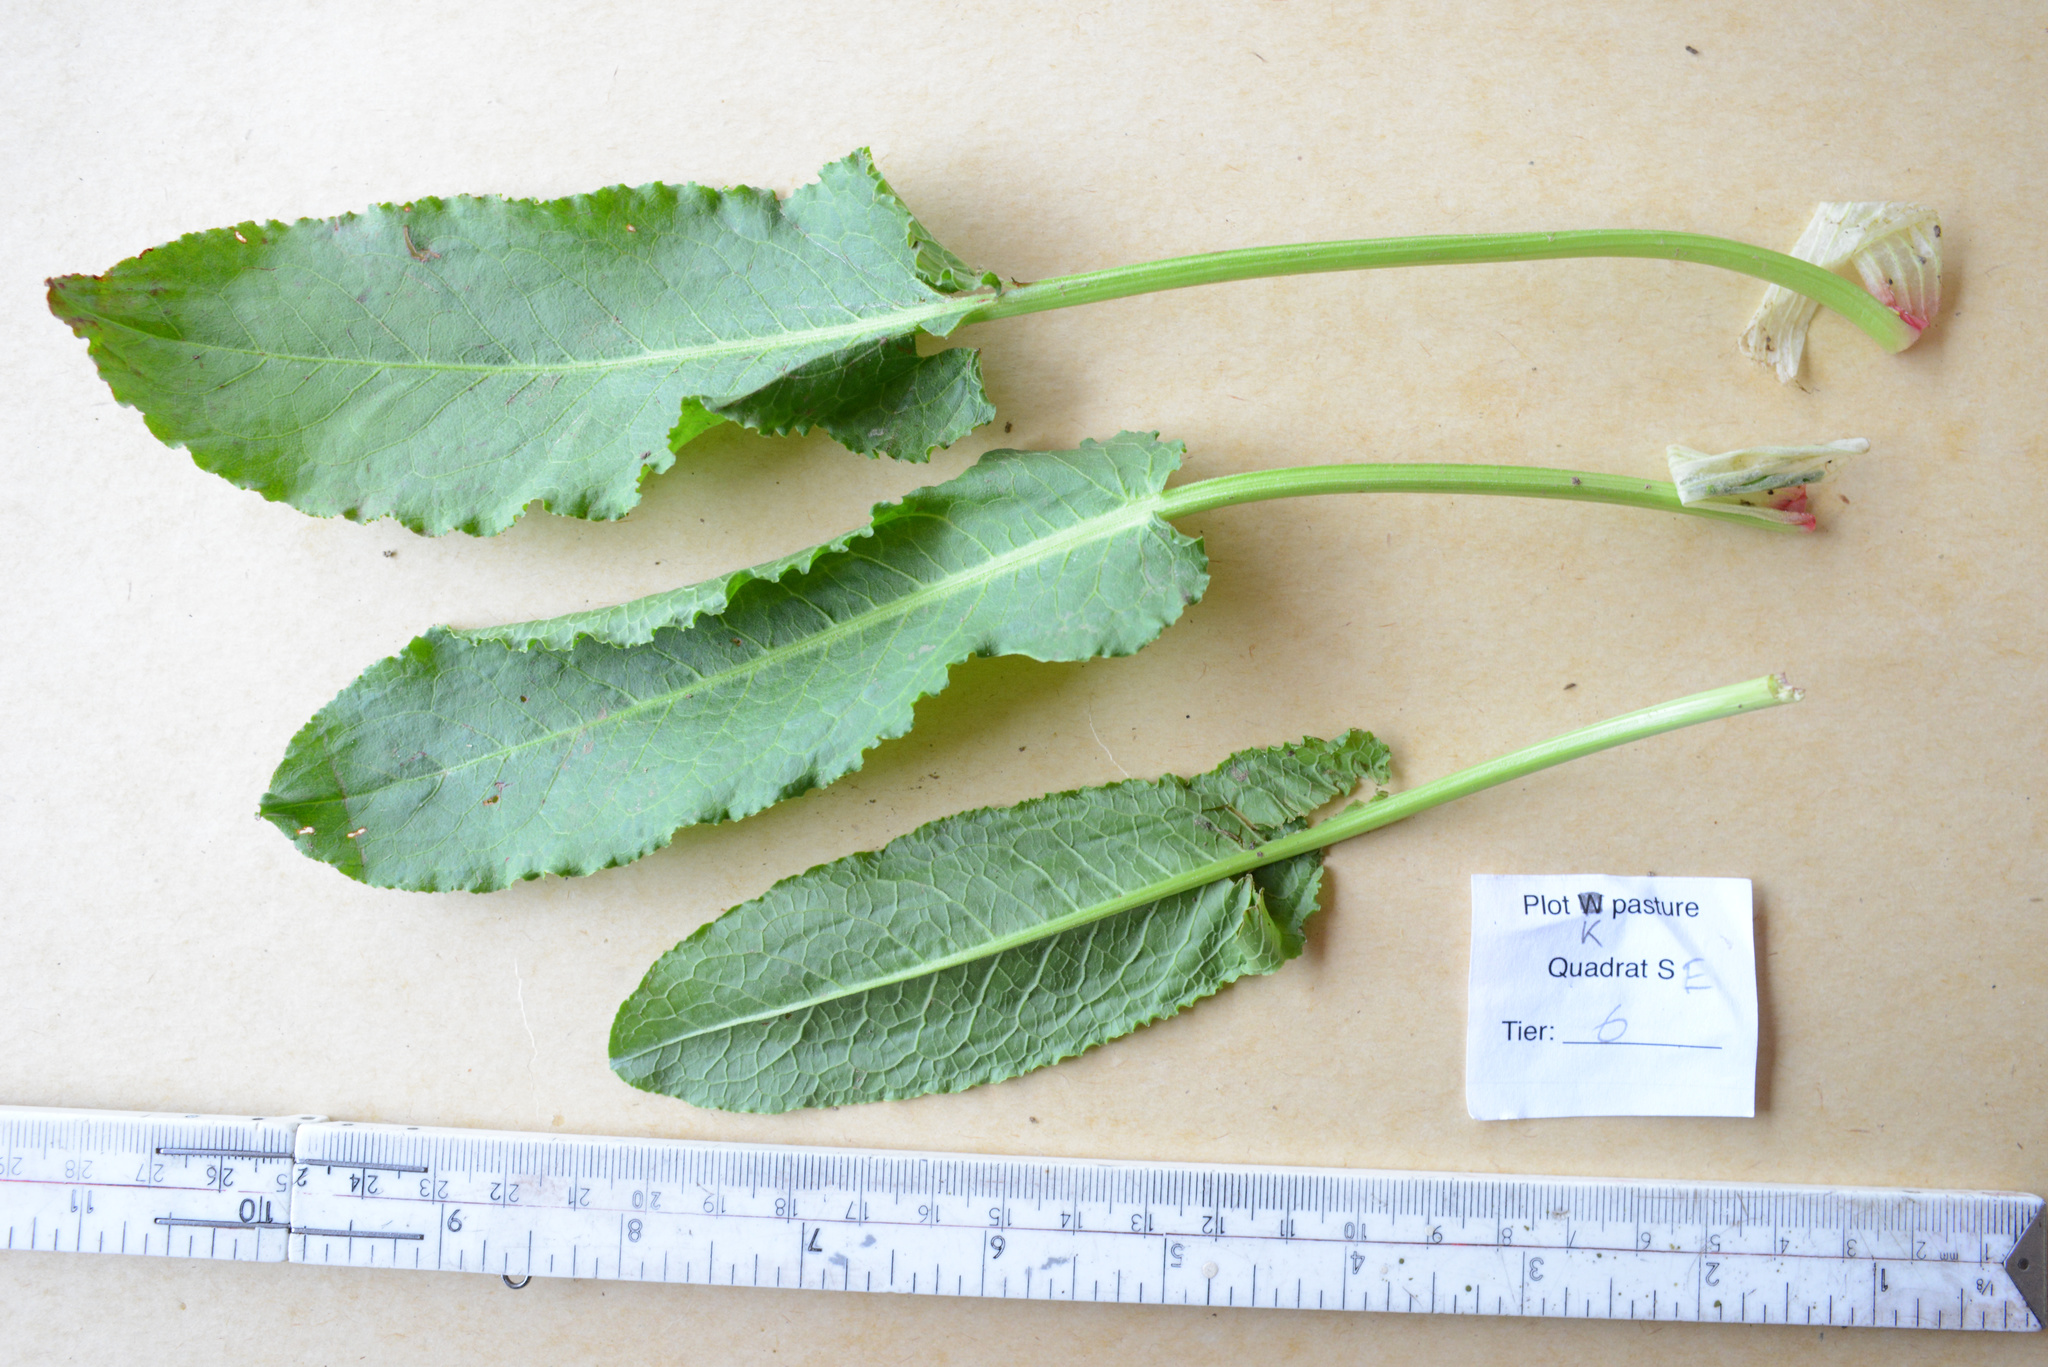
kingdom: Plantae
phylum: Tracheophyta
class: Magnoliopsida
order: Caryophyllales
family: Polygonaceae
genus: Rumex
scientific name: Rumex obtusifolius
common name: Bitter dock
